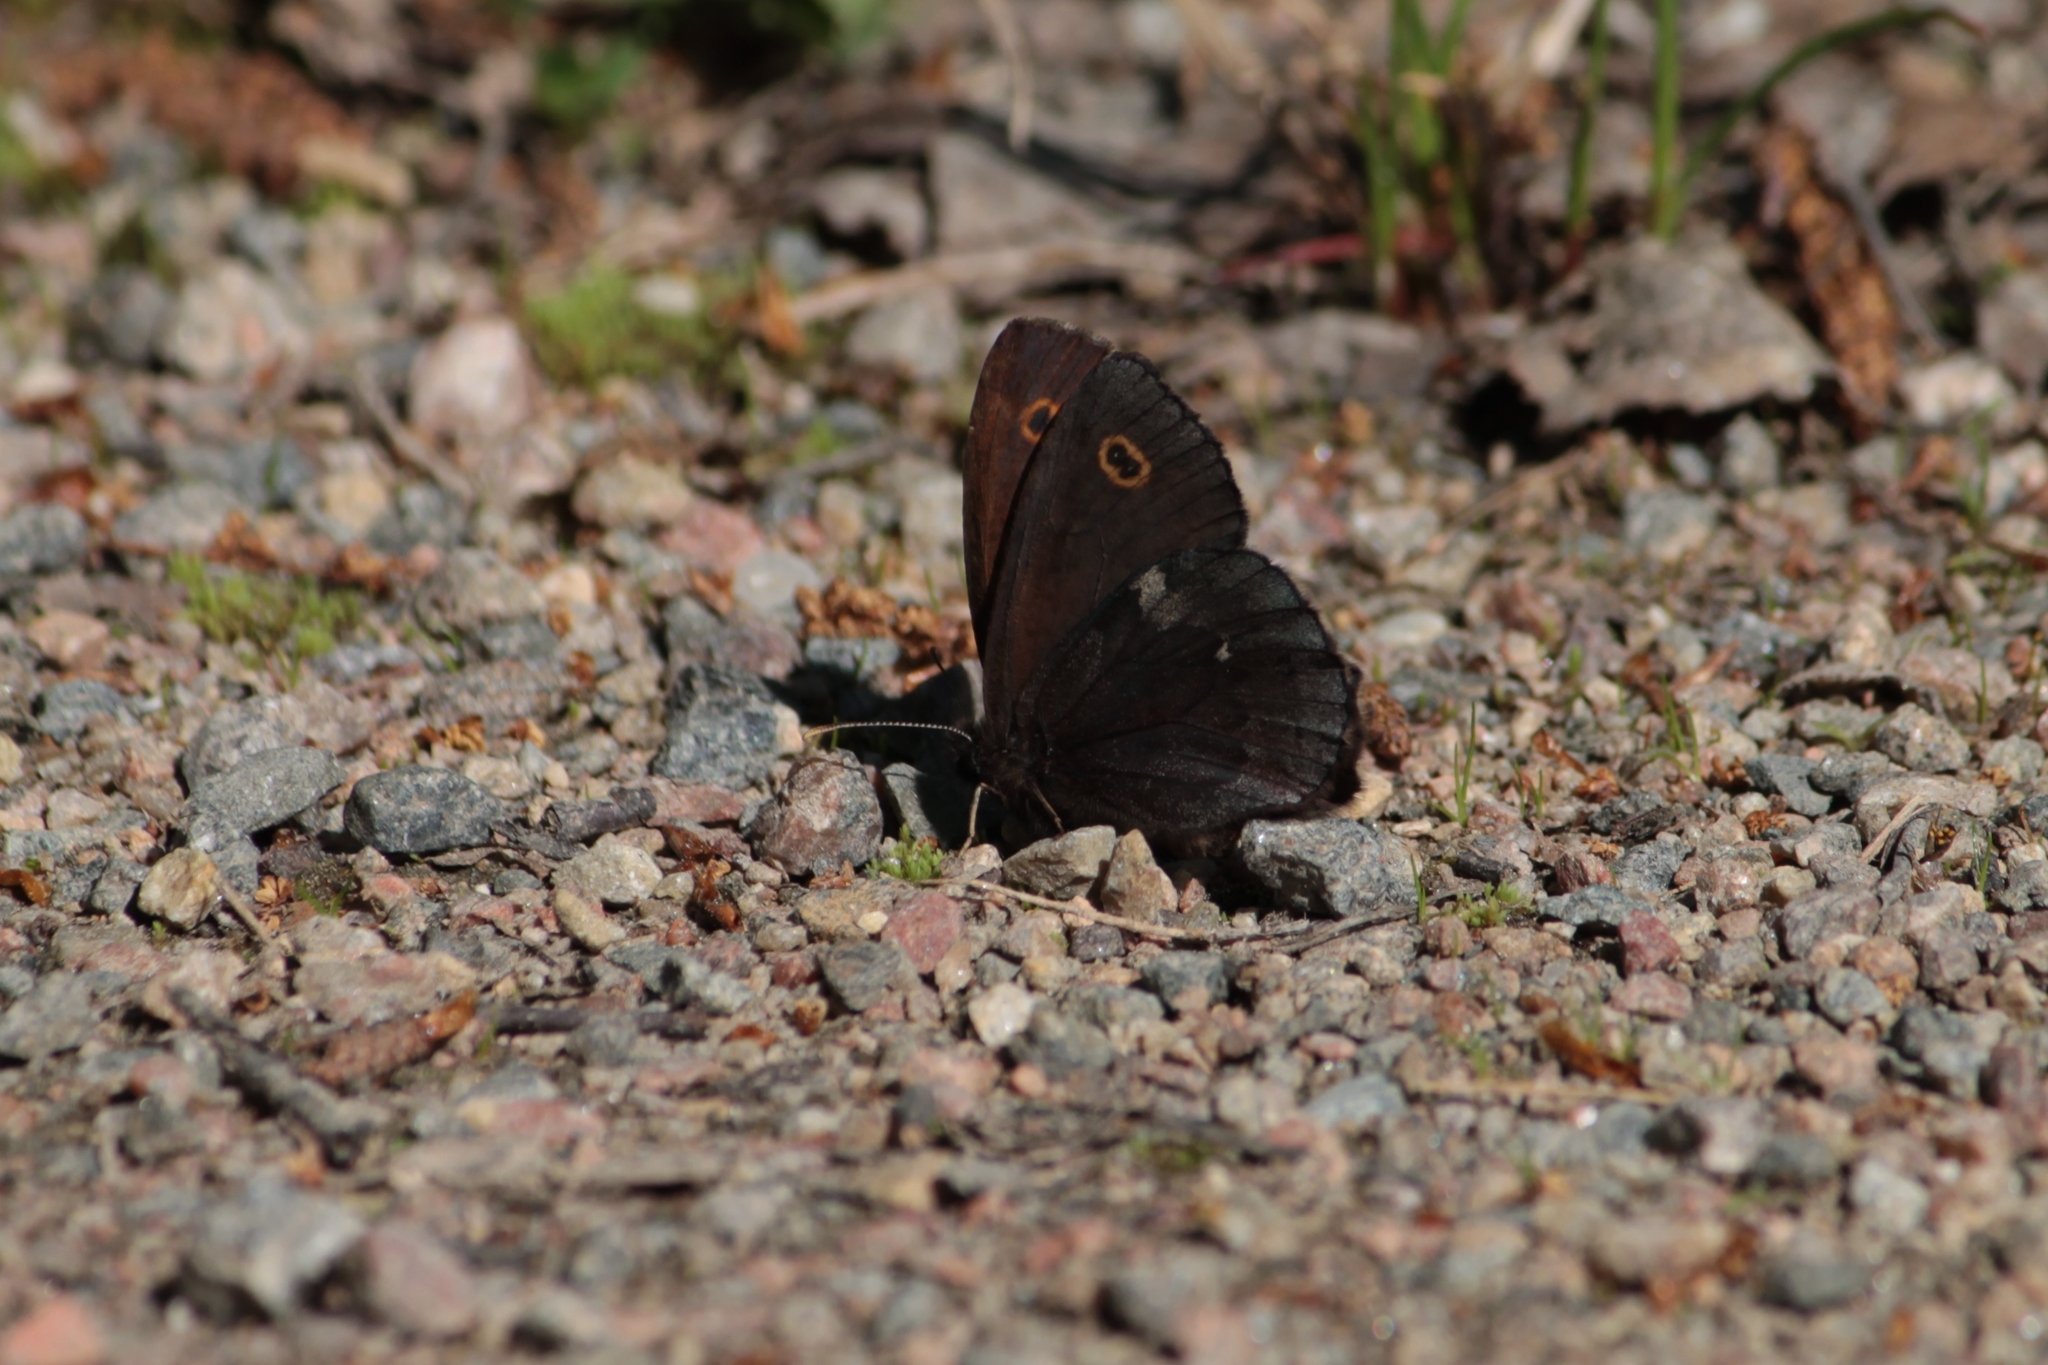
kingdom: Animalia
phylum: Arthropoda
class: Insecta
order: Lepidoptera
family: Nymphalidae
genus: Erebia
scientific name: Erebia embla
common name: Lapland ringlet
